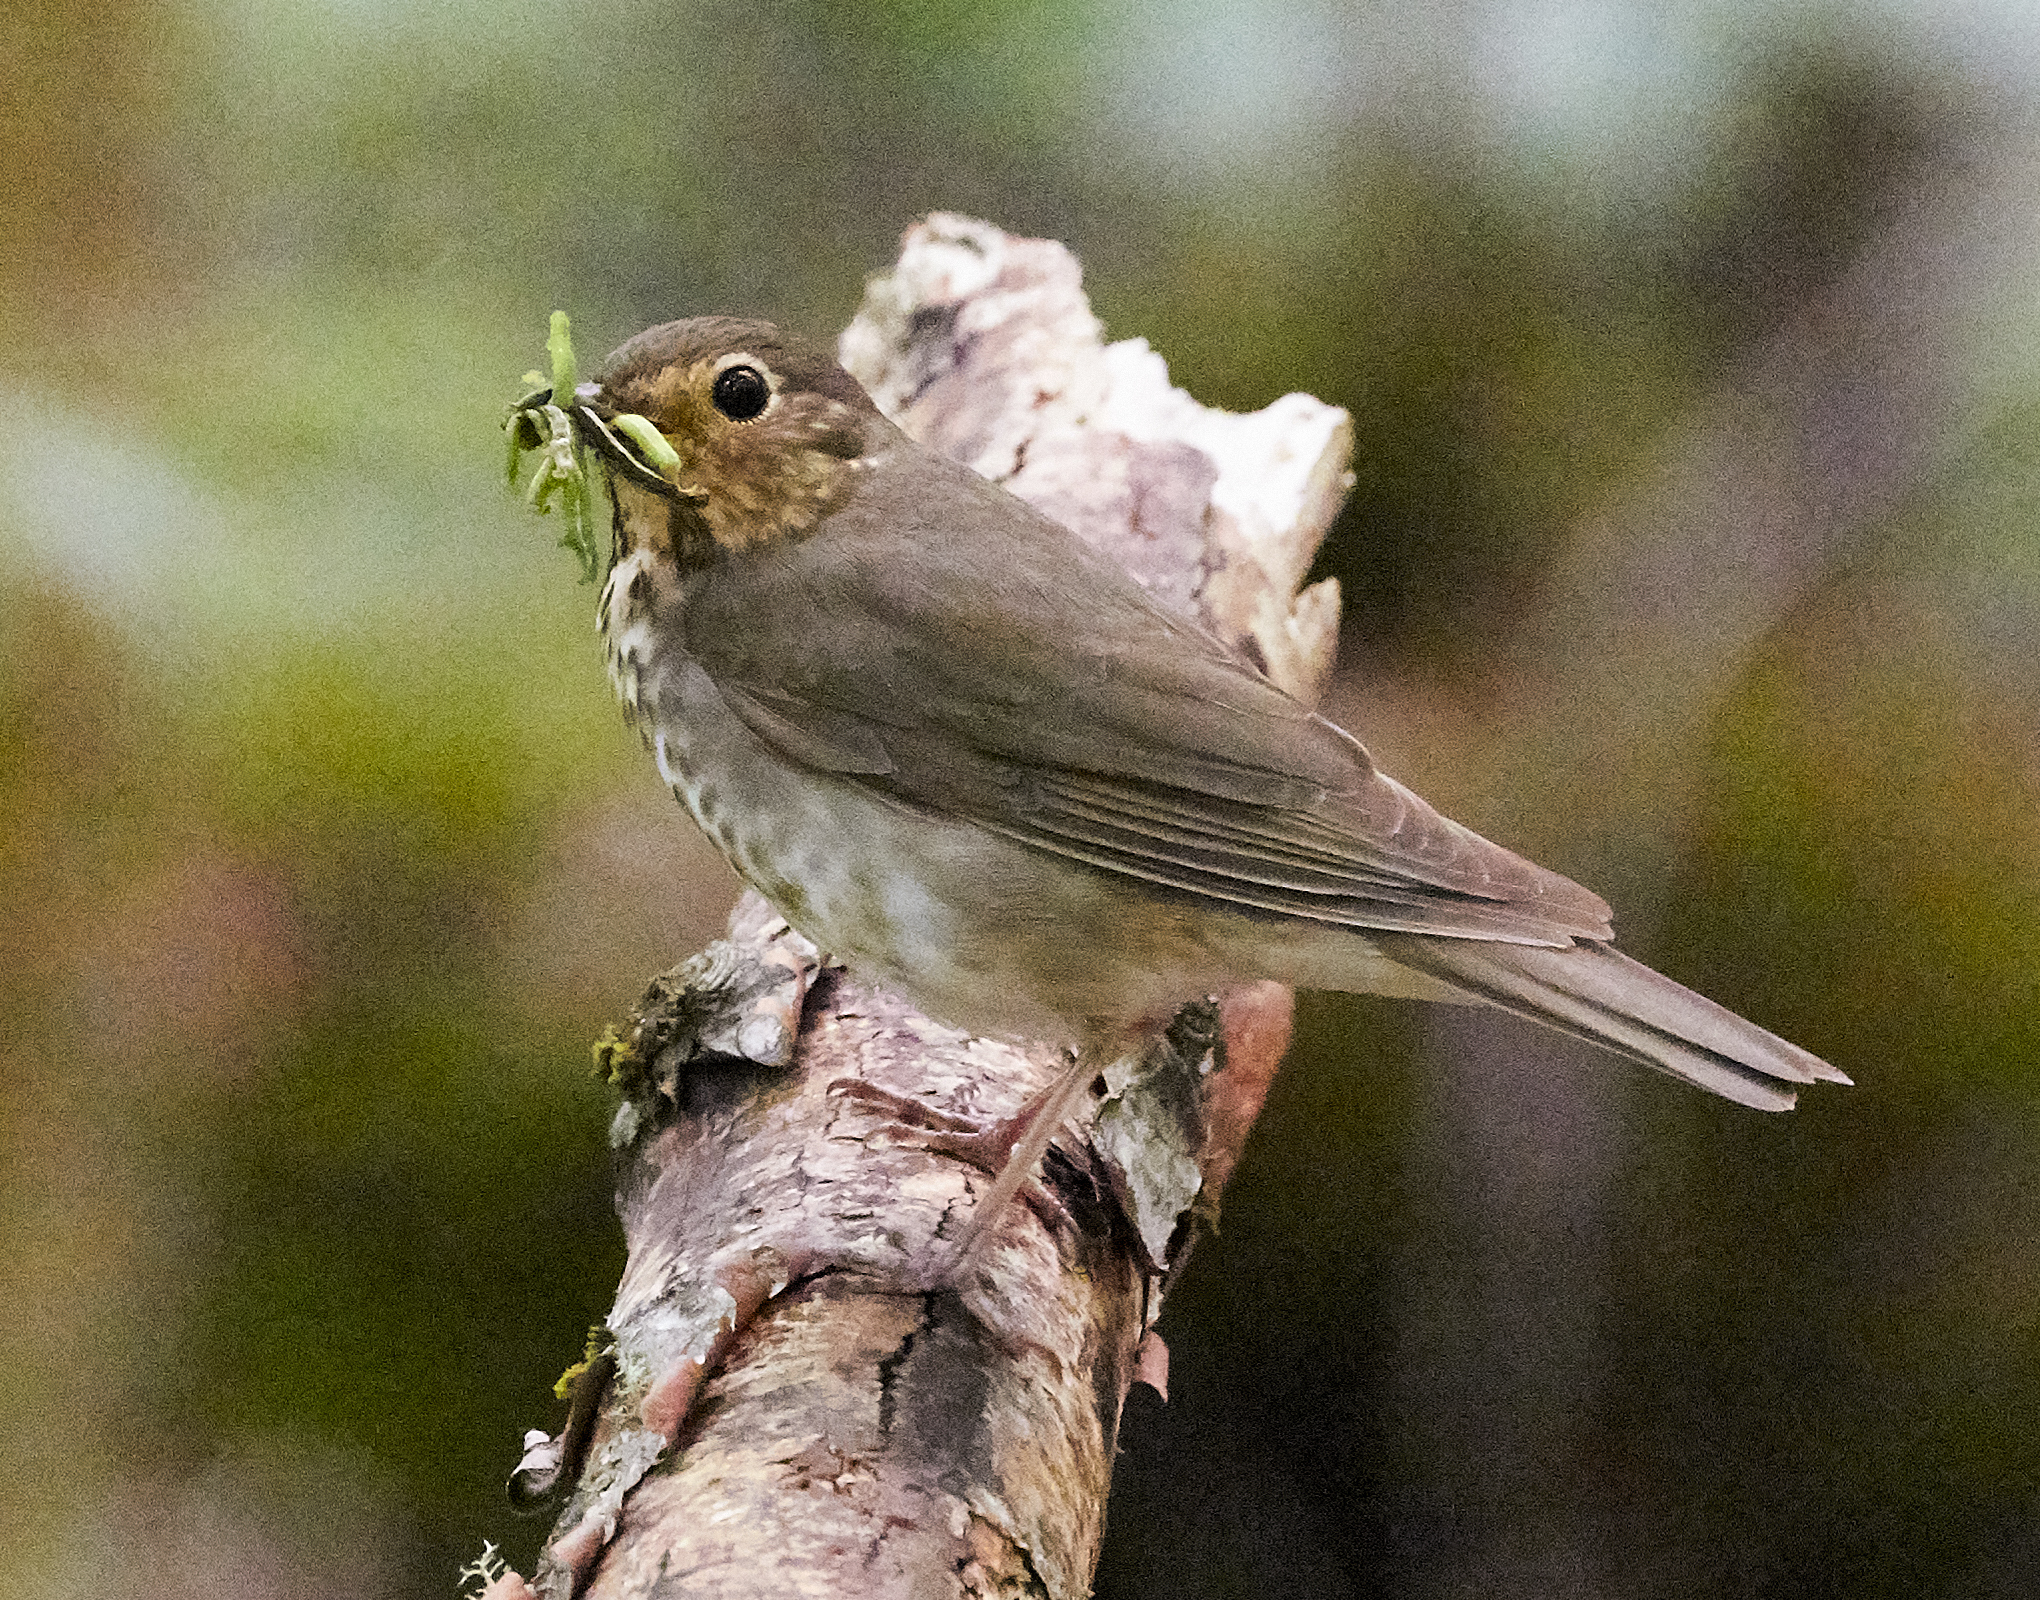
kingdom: Animalia
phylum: Chordata
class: Aves
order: Passeriformes
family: Turdidae
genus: Catharus
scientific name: Catharus ustulatus
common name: Swainson's thrush
